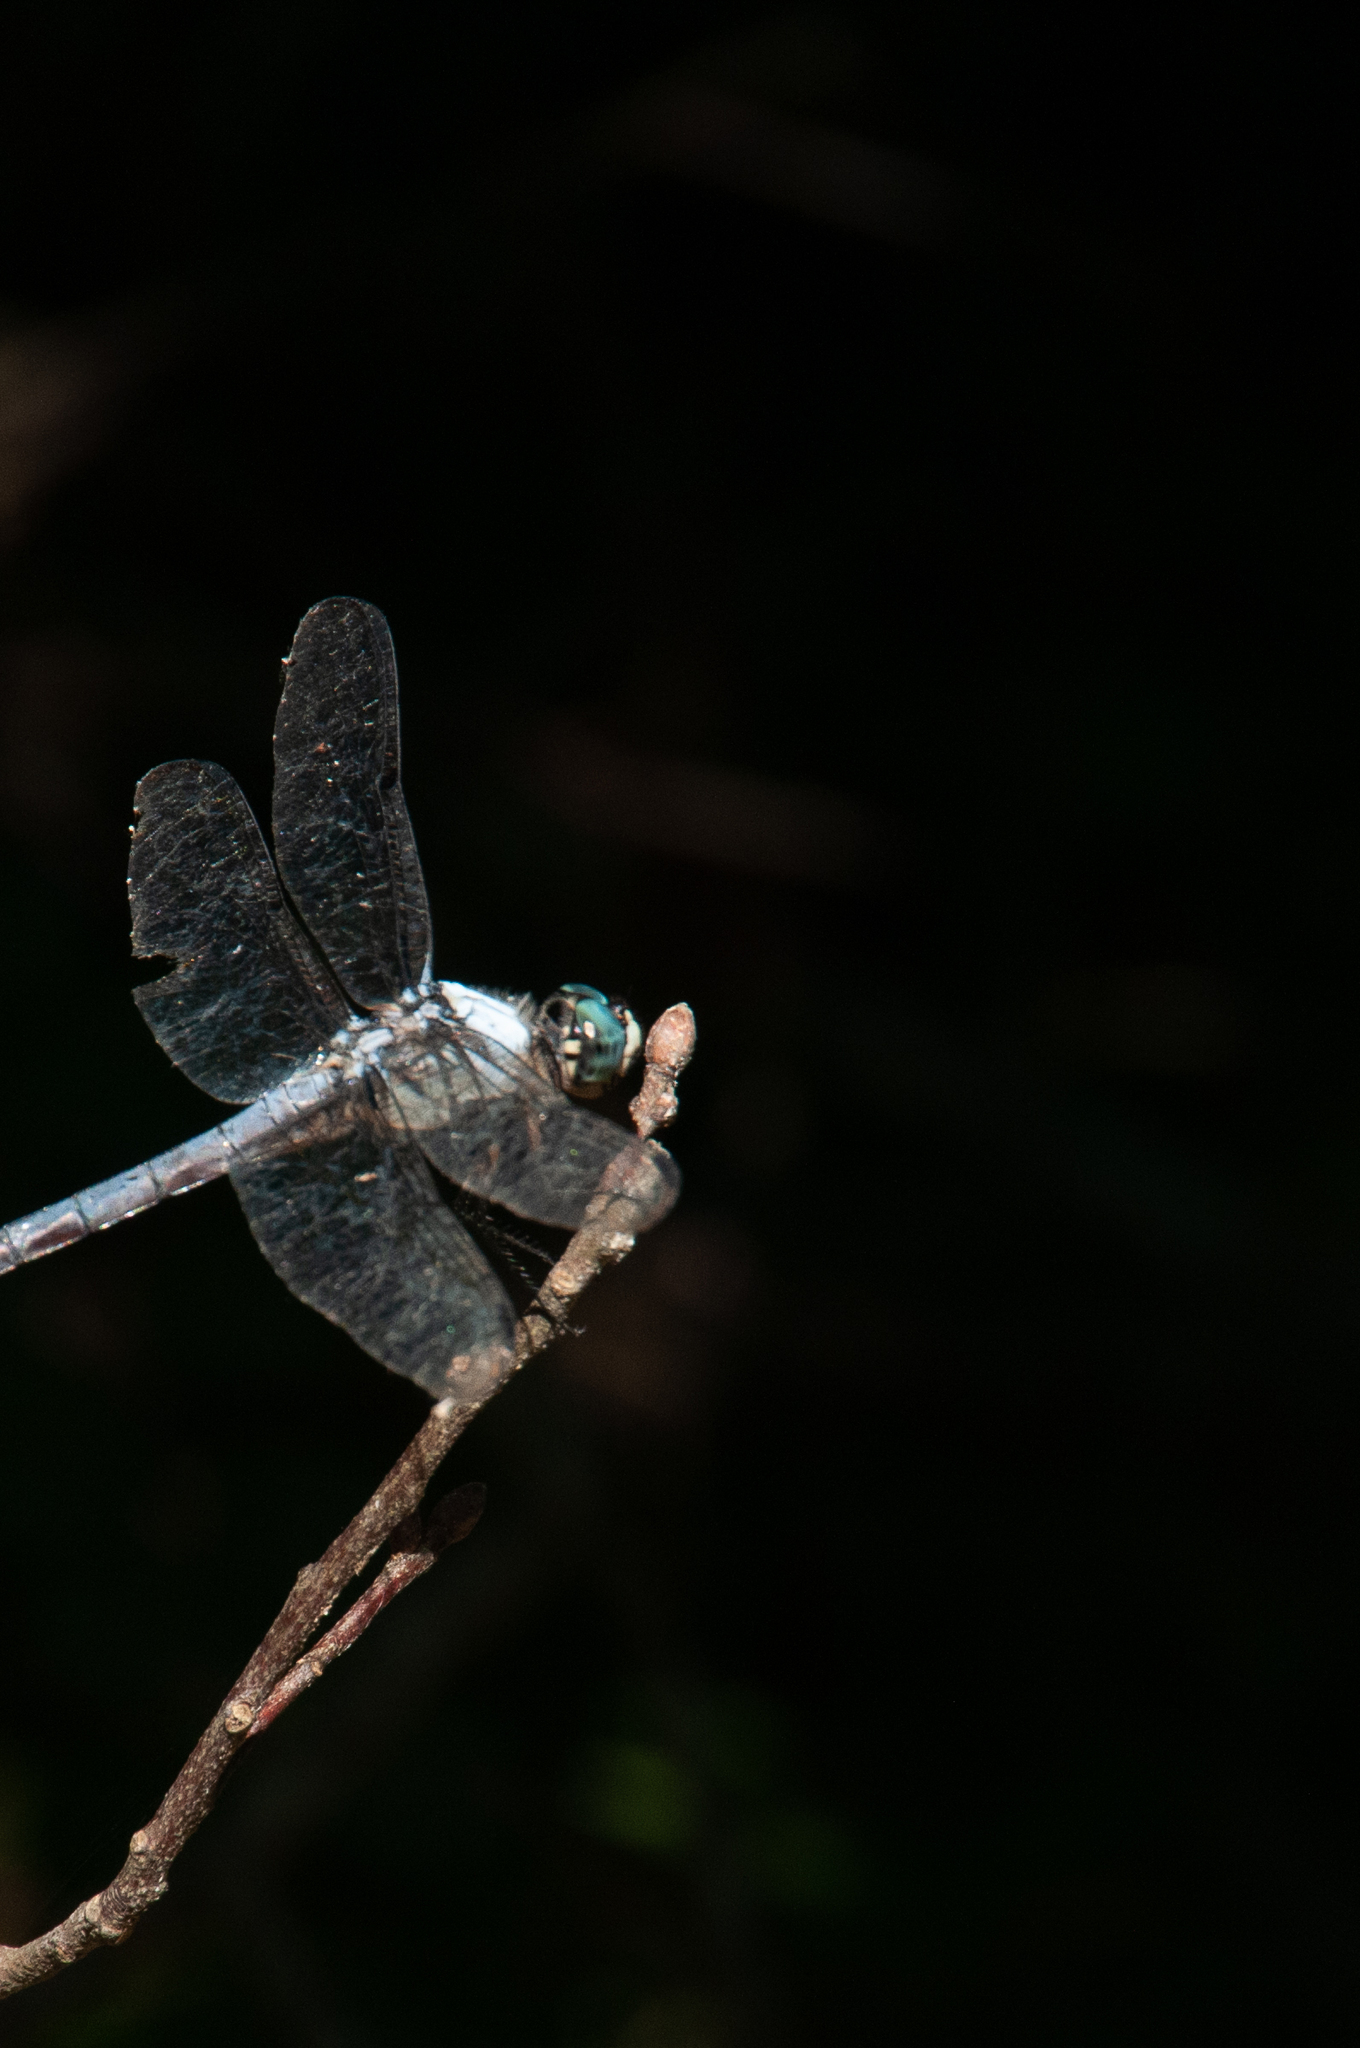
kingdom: Animalia
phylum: Arthropoda
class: Insecta
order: Odonata
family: Libellulidae
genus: Libellula
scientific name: Libellula vibrans
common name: Great blue skimmer
